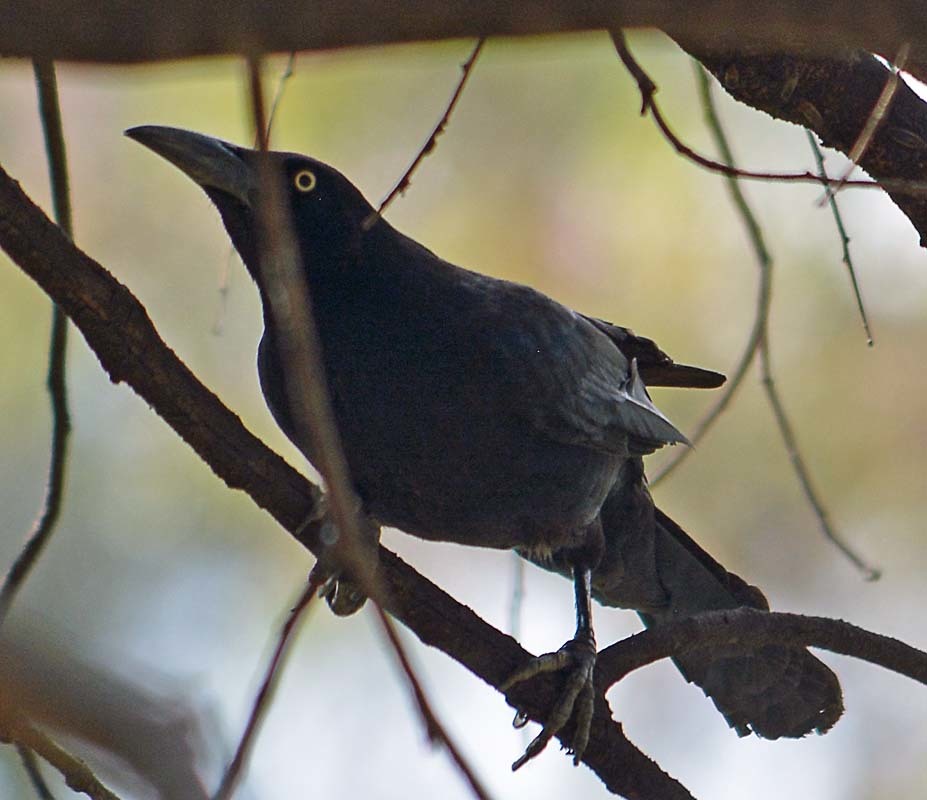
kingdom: Animalia
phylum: Chordata
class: Aves
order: Passeriformes
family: Icteridae
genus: Quiscalus
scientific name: Quiscalus mexicanus
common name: Great-tailed grackle
